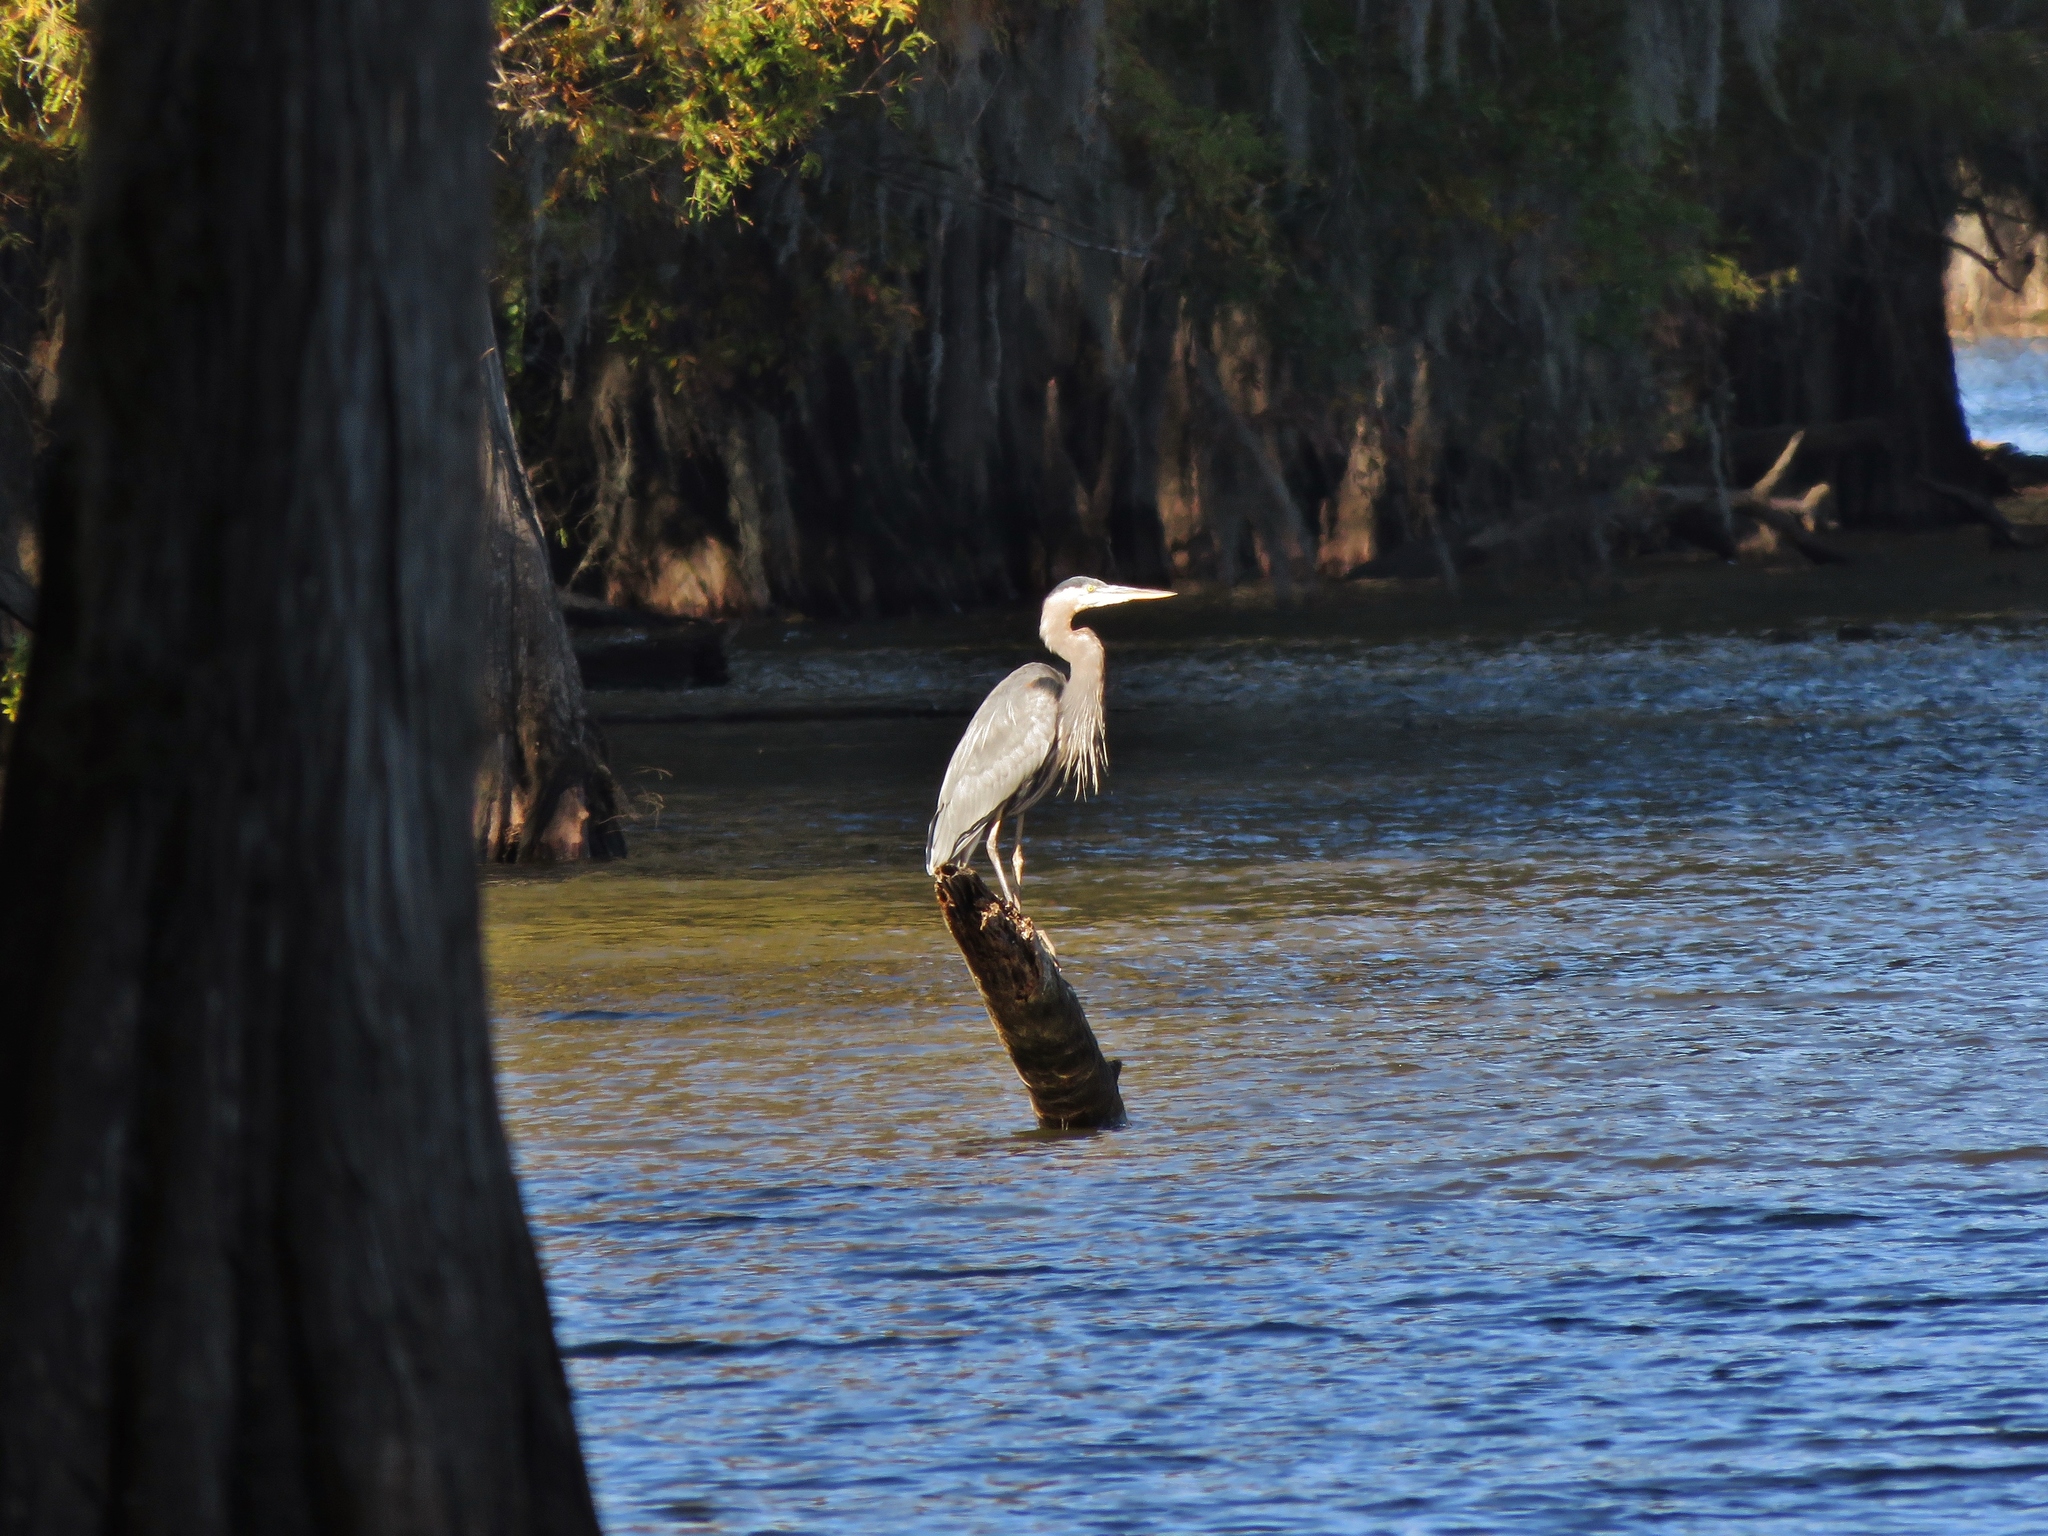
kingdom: Animalia
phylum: Chordata
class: Aves
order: Pelecaniformes
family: Ardeidae
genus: Ardea
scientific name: Ardea herodias
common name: Great blue heron
